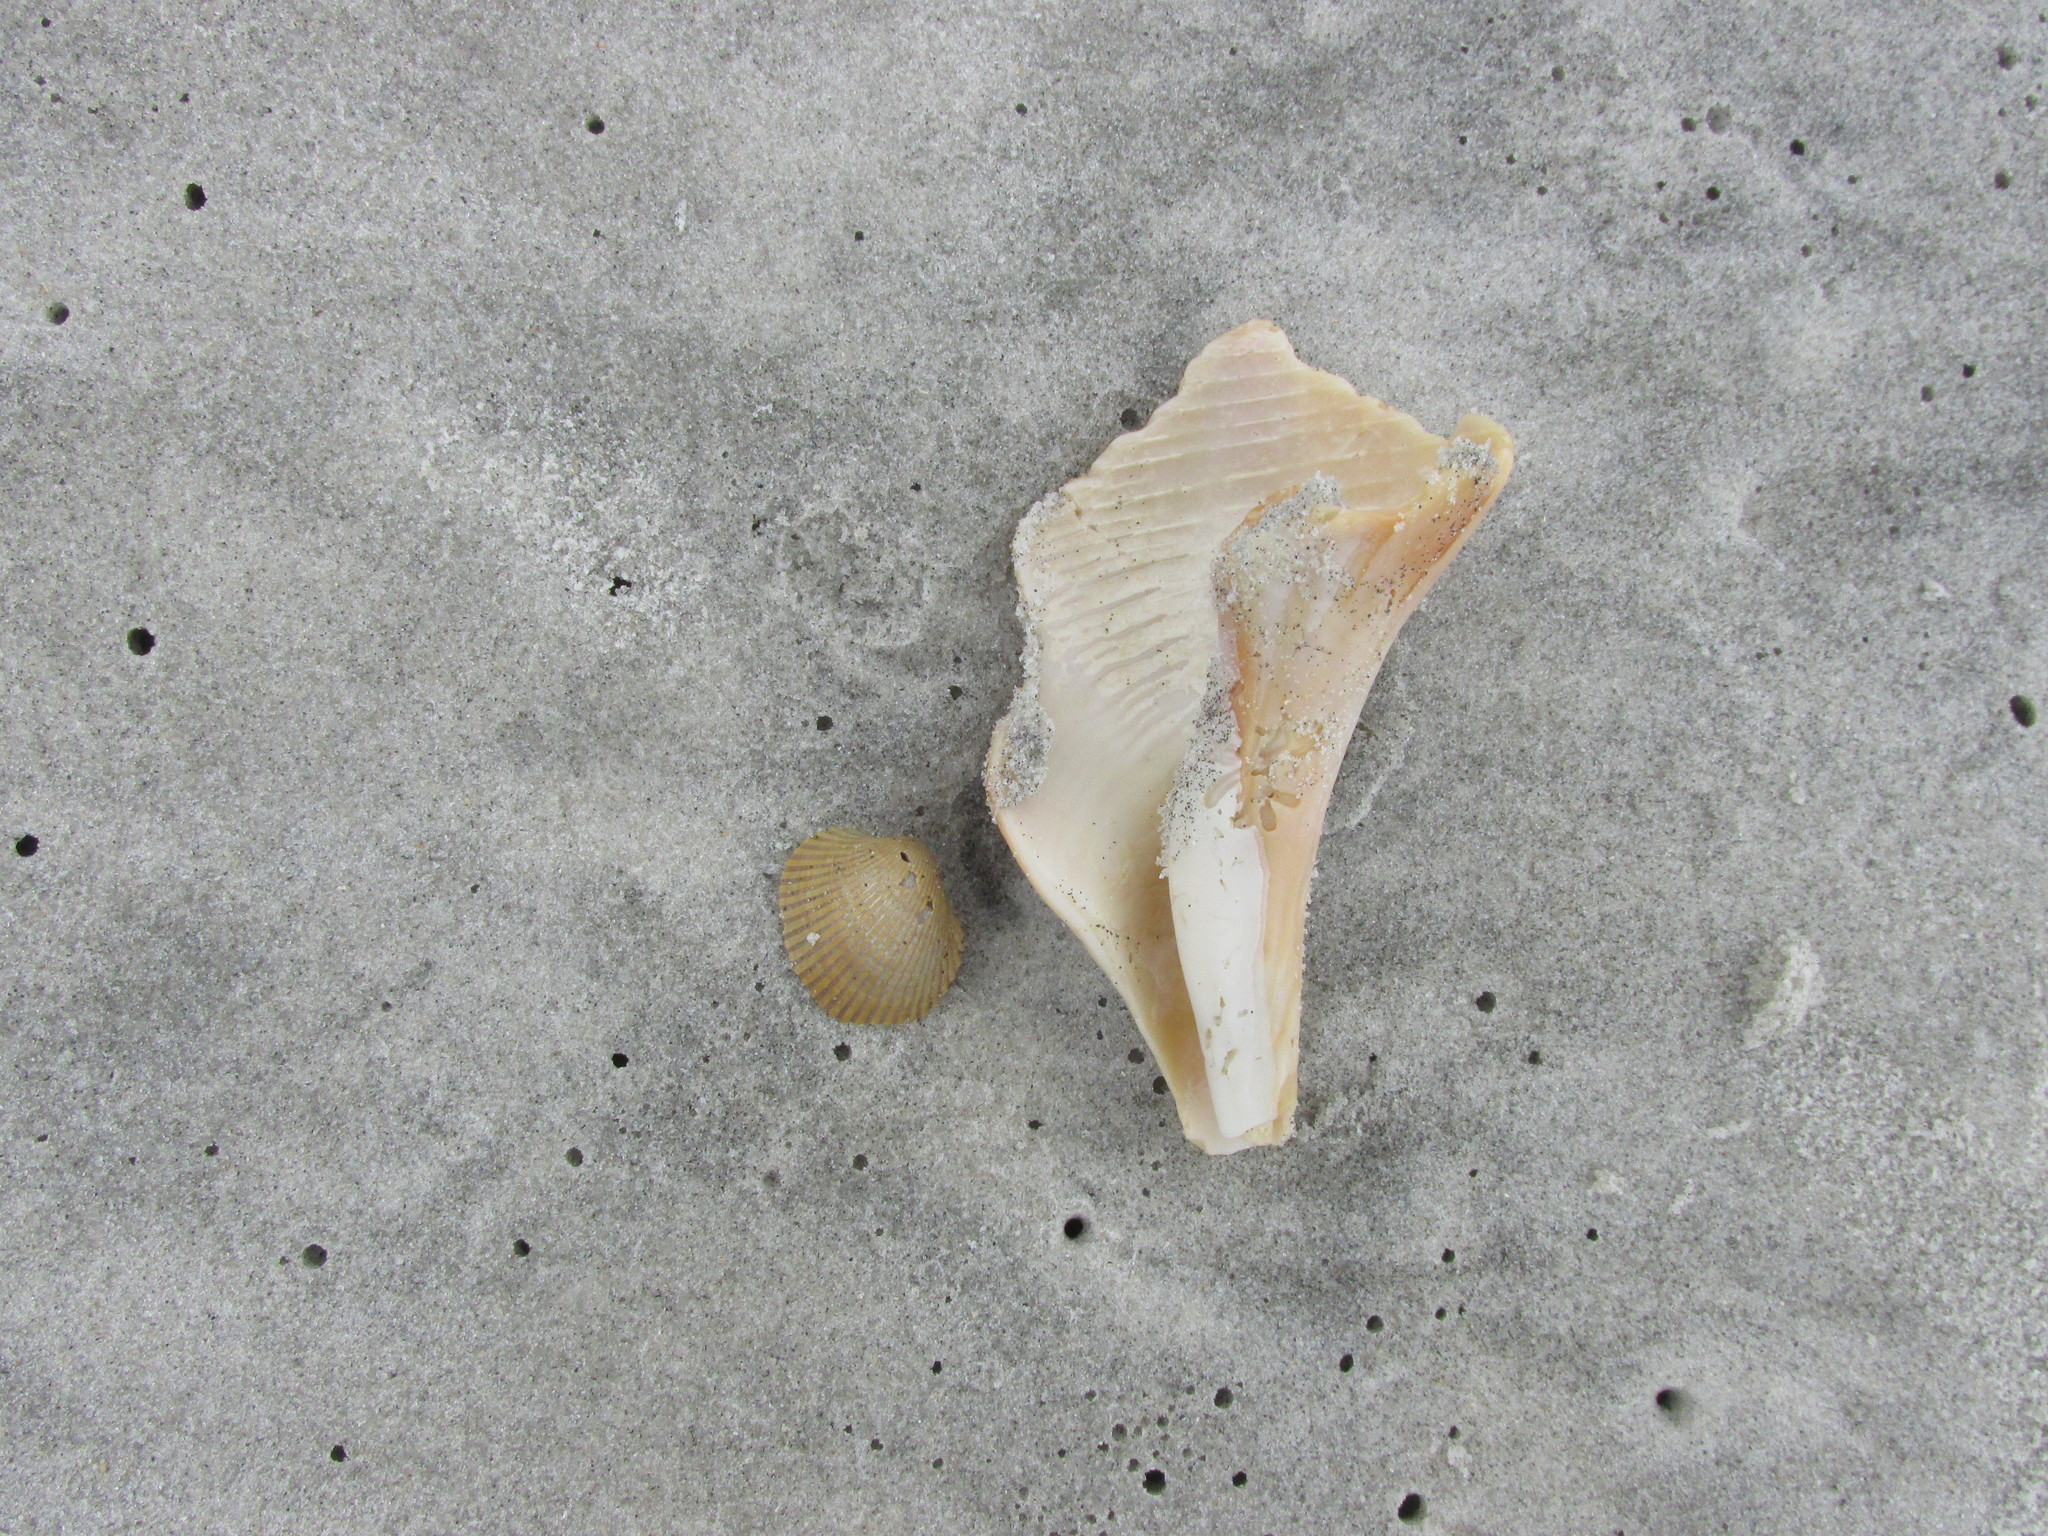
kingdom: Animalia
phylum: Mollusca
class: Gastropoda
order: Neogastropoda
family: Busyconidae
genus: Sinistrofulgur
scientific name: Sinistrofulgur sinistrum
